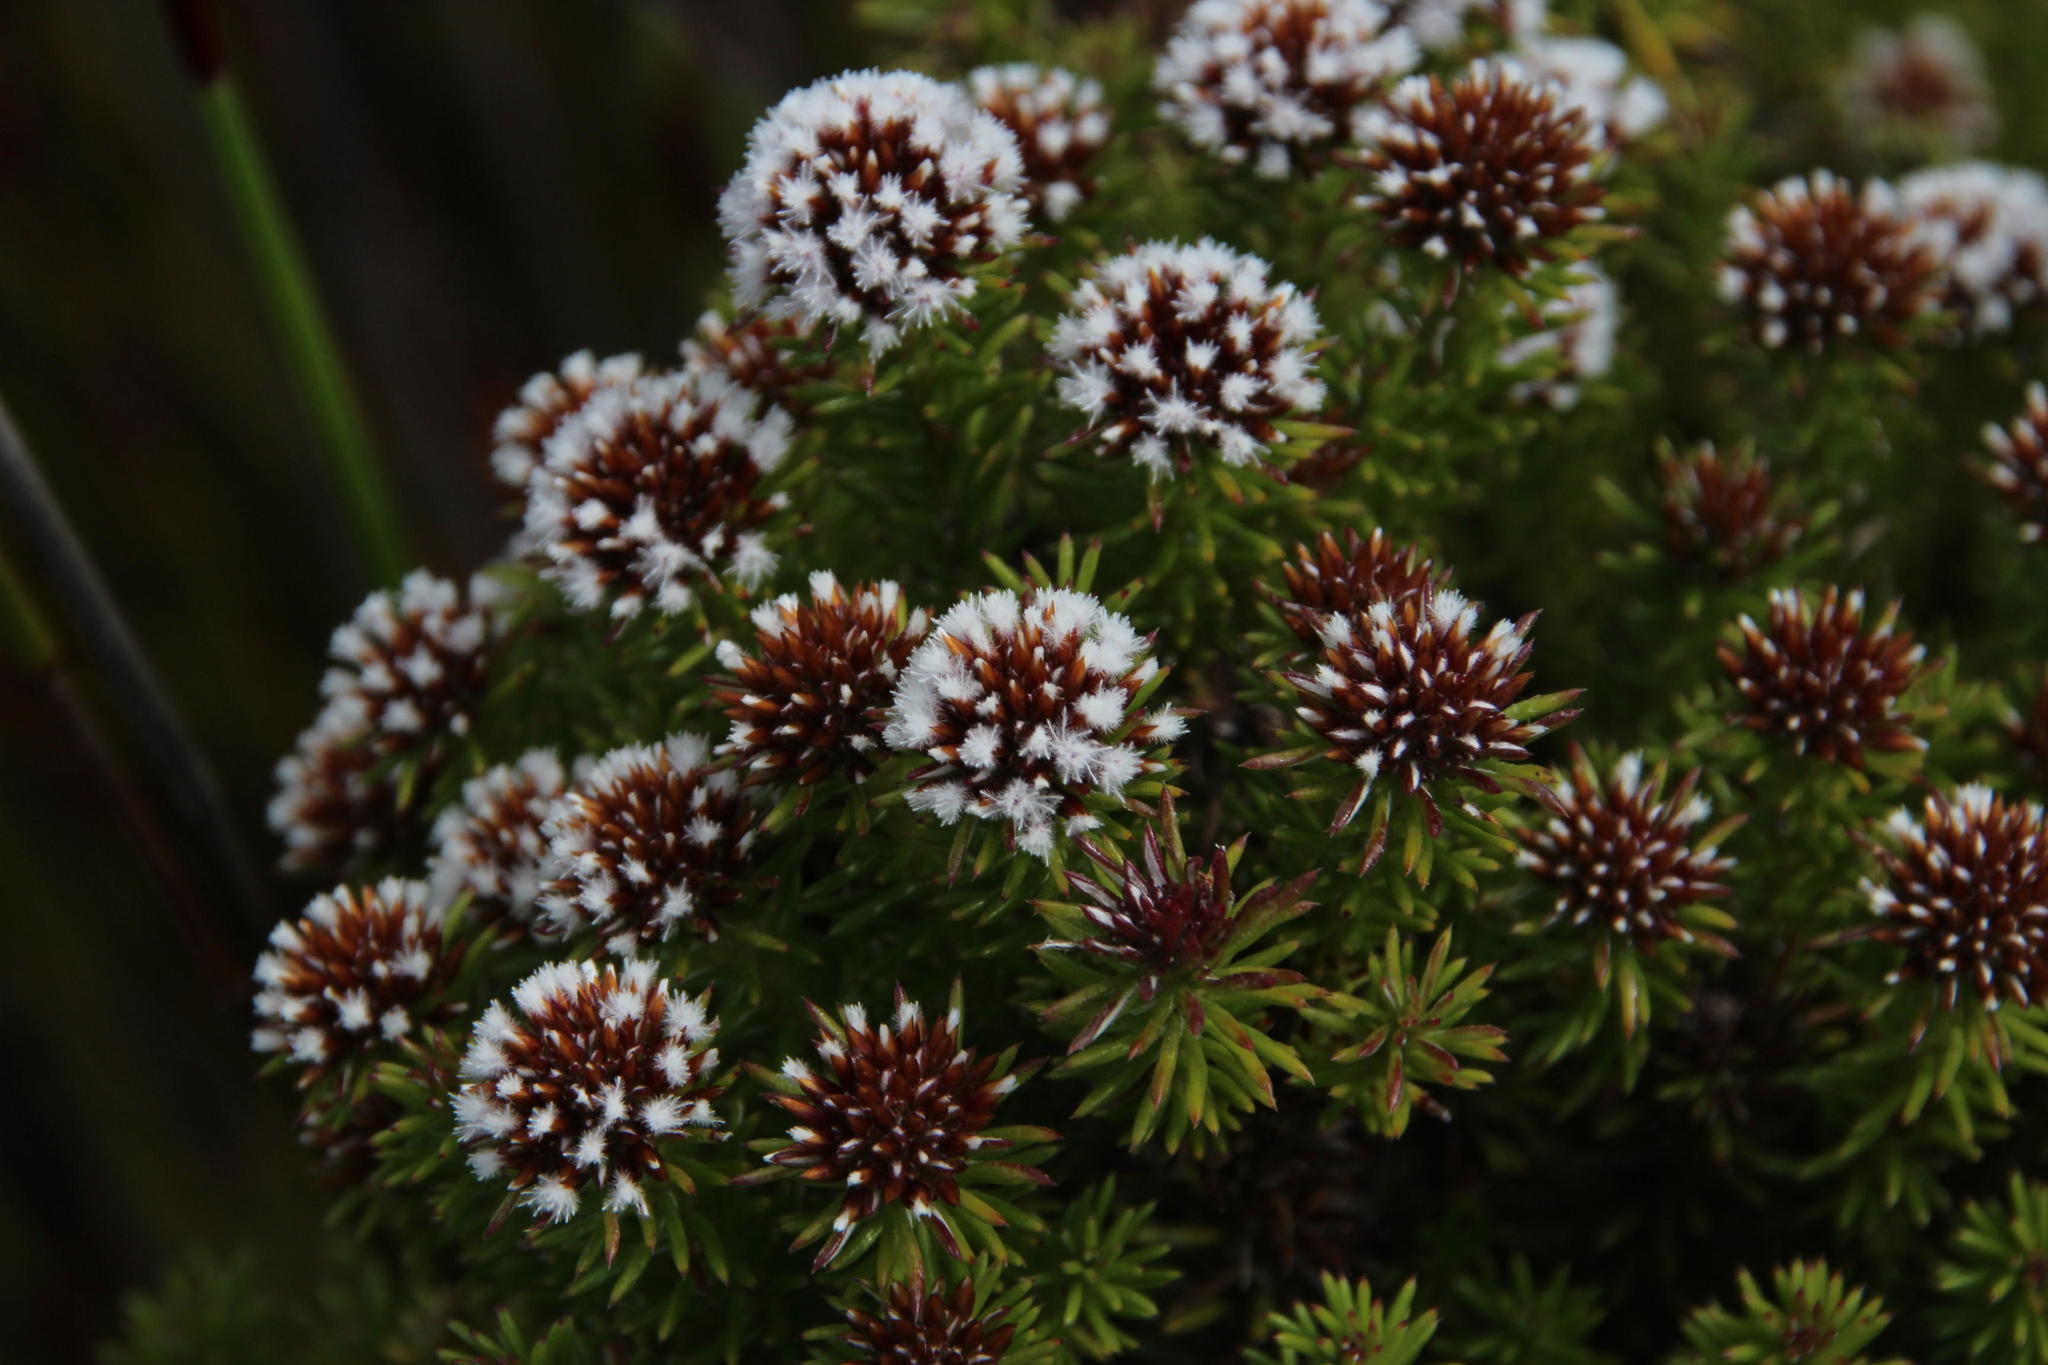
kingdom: Plantae
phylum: Tracheophyta
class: Magnoliopsida
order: Asterales
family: Asteraceae
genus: Stoebe
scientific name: Stoebe rosea
